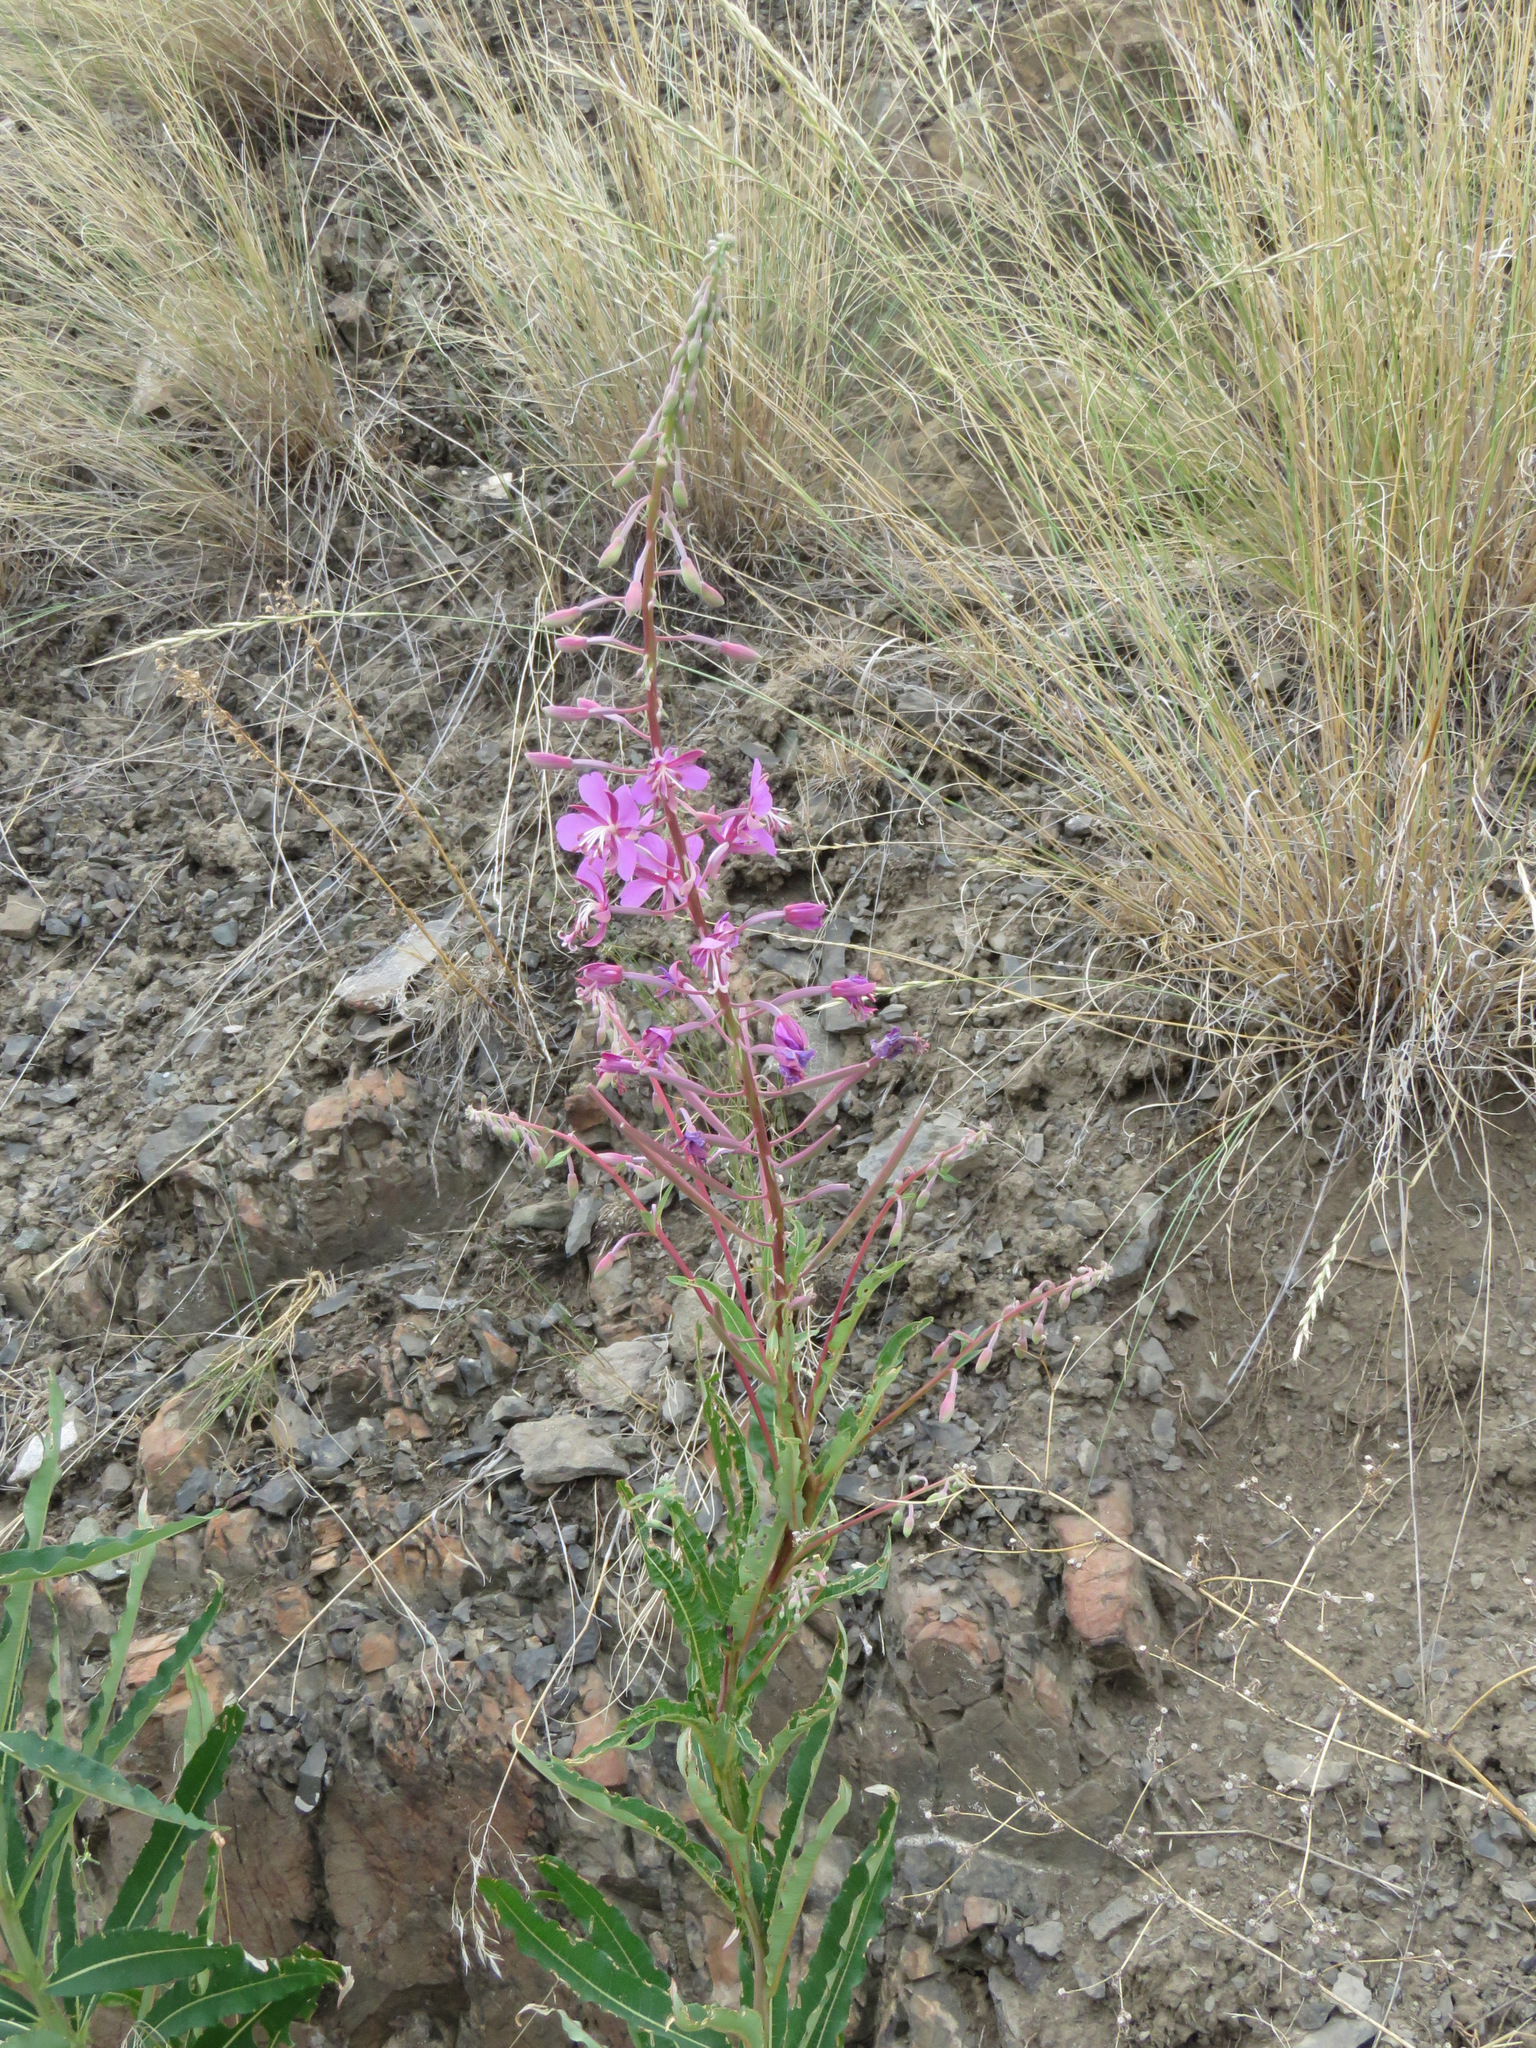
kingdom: Plantae
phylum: Tracheophyta
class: Magnoliopsida
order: Myrtales
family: Onagraceae
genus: Chamaenerion
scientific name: Chamaenerion angustifolium
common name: Fireweed
